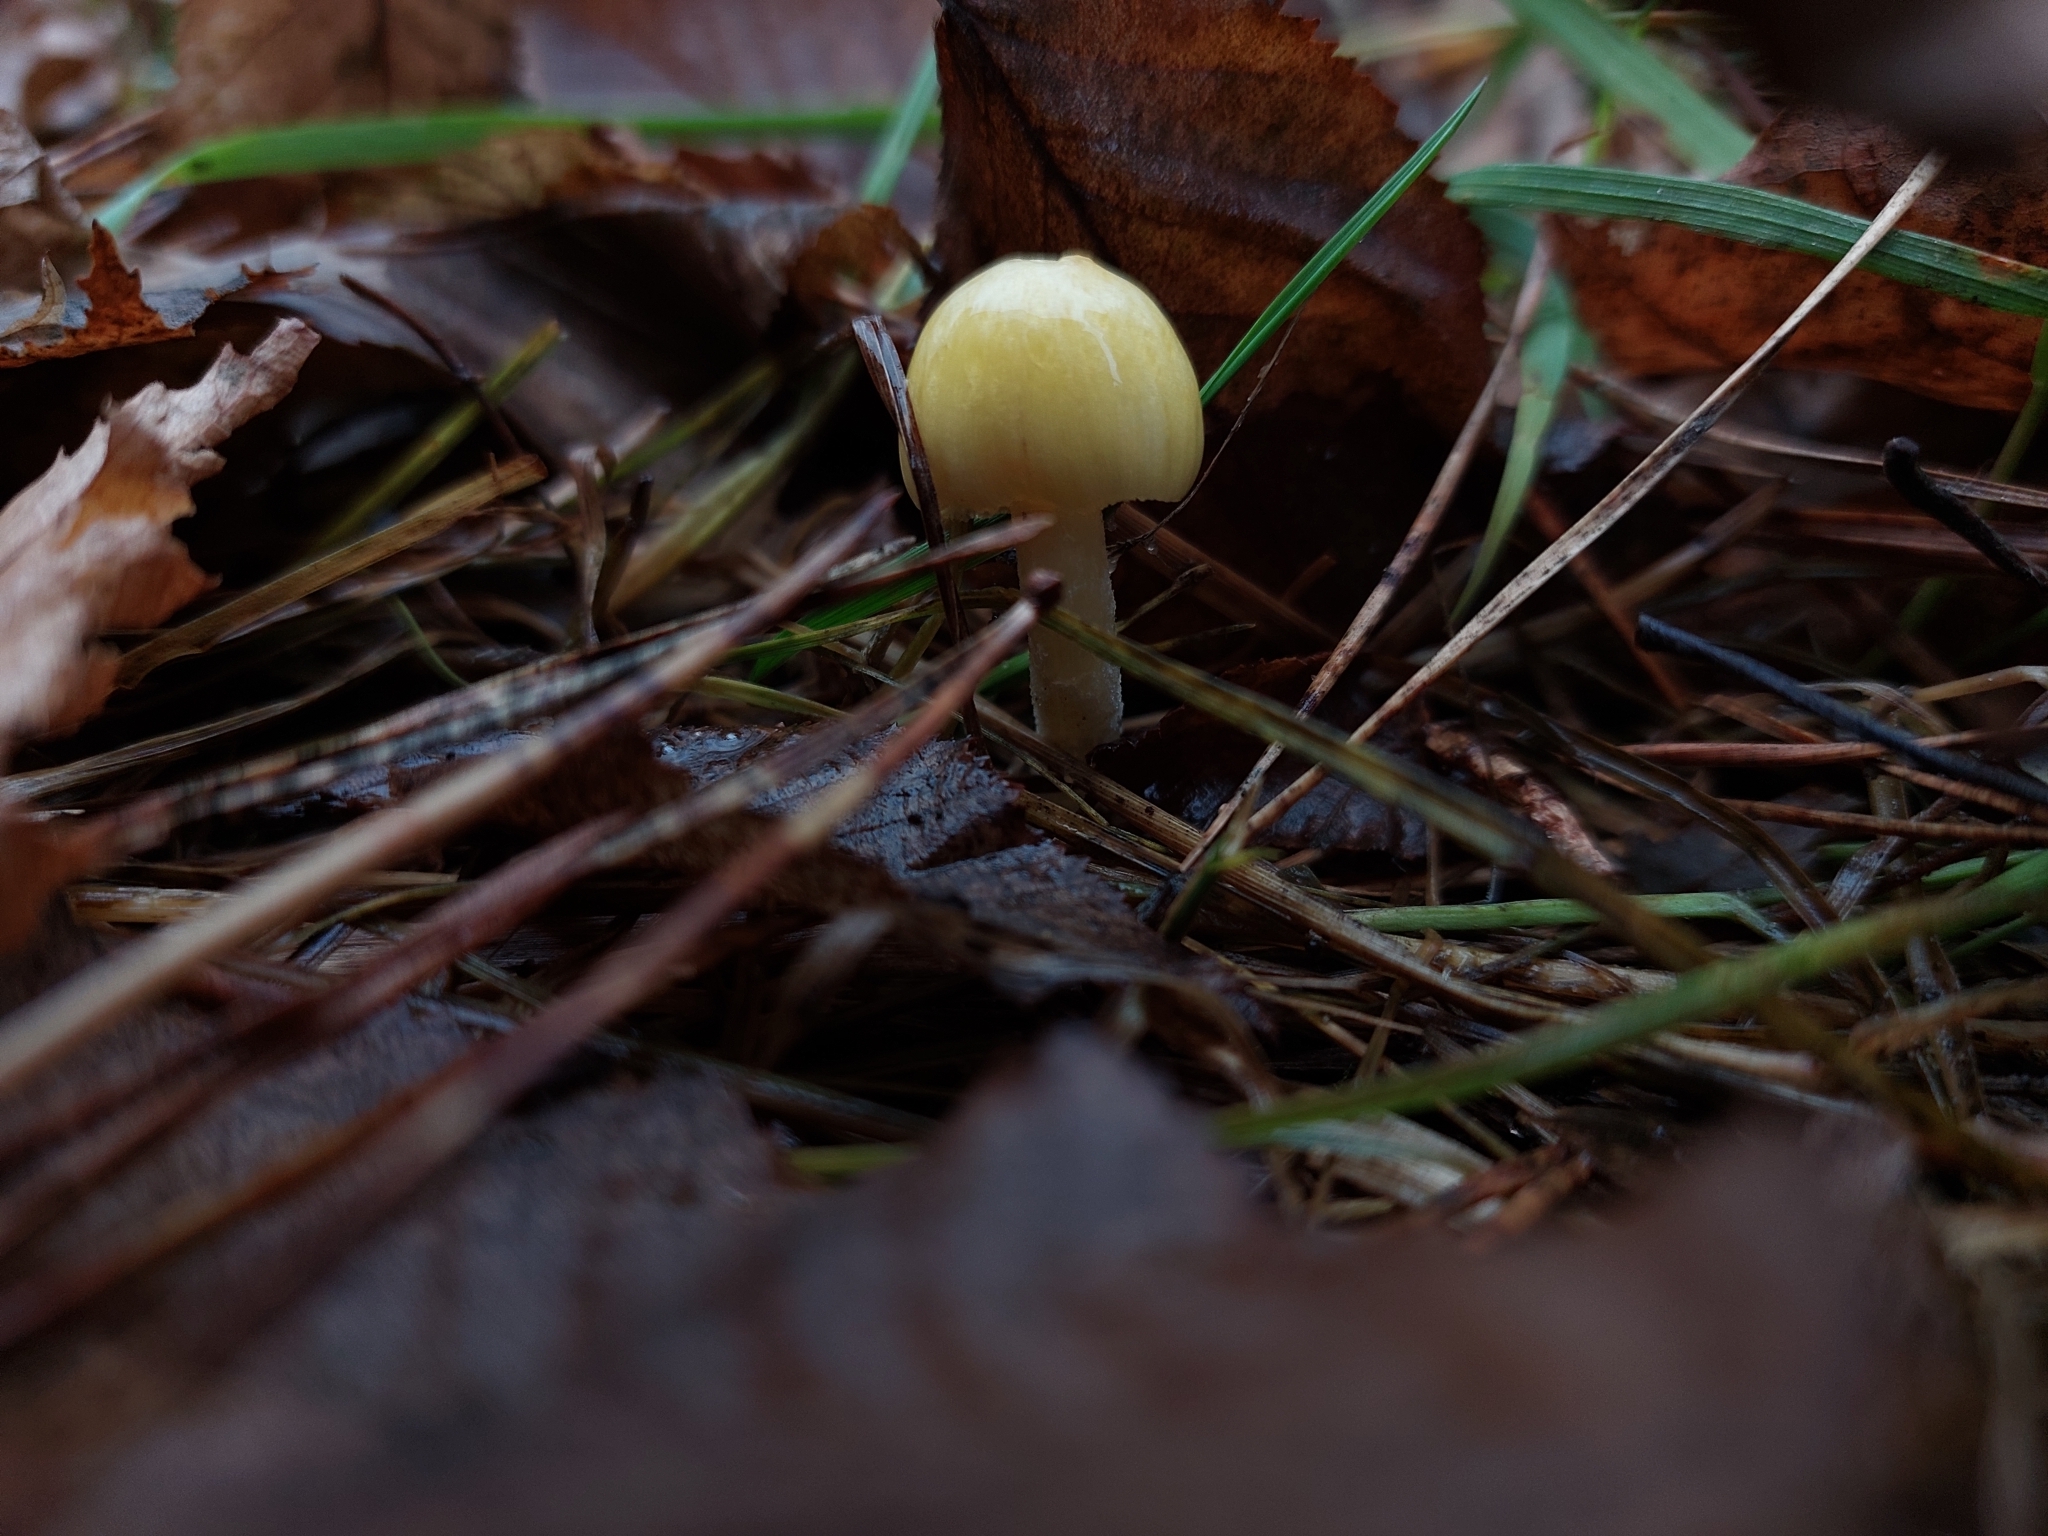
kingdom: Fungi
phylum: Basidiomycota
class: Agaricomycetes
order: Agaricales
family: Bolbitiaceae
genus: Bolbitius
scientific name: Bolbitius titubans
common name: Yellow fieldcap
